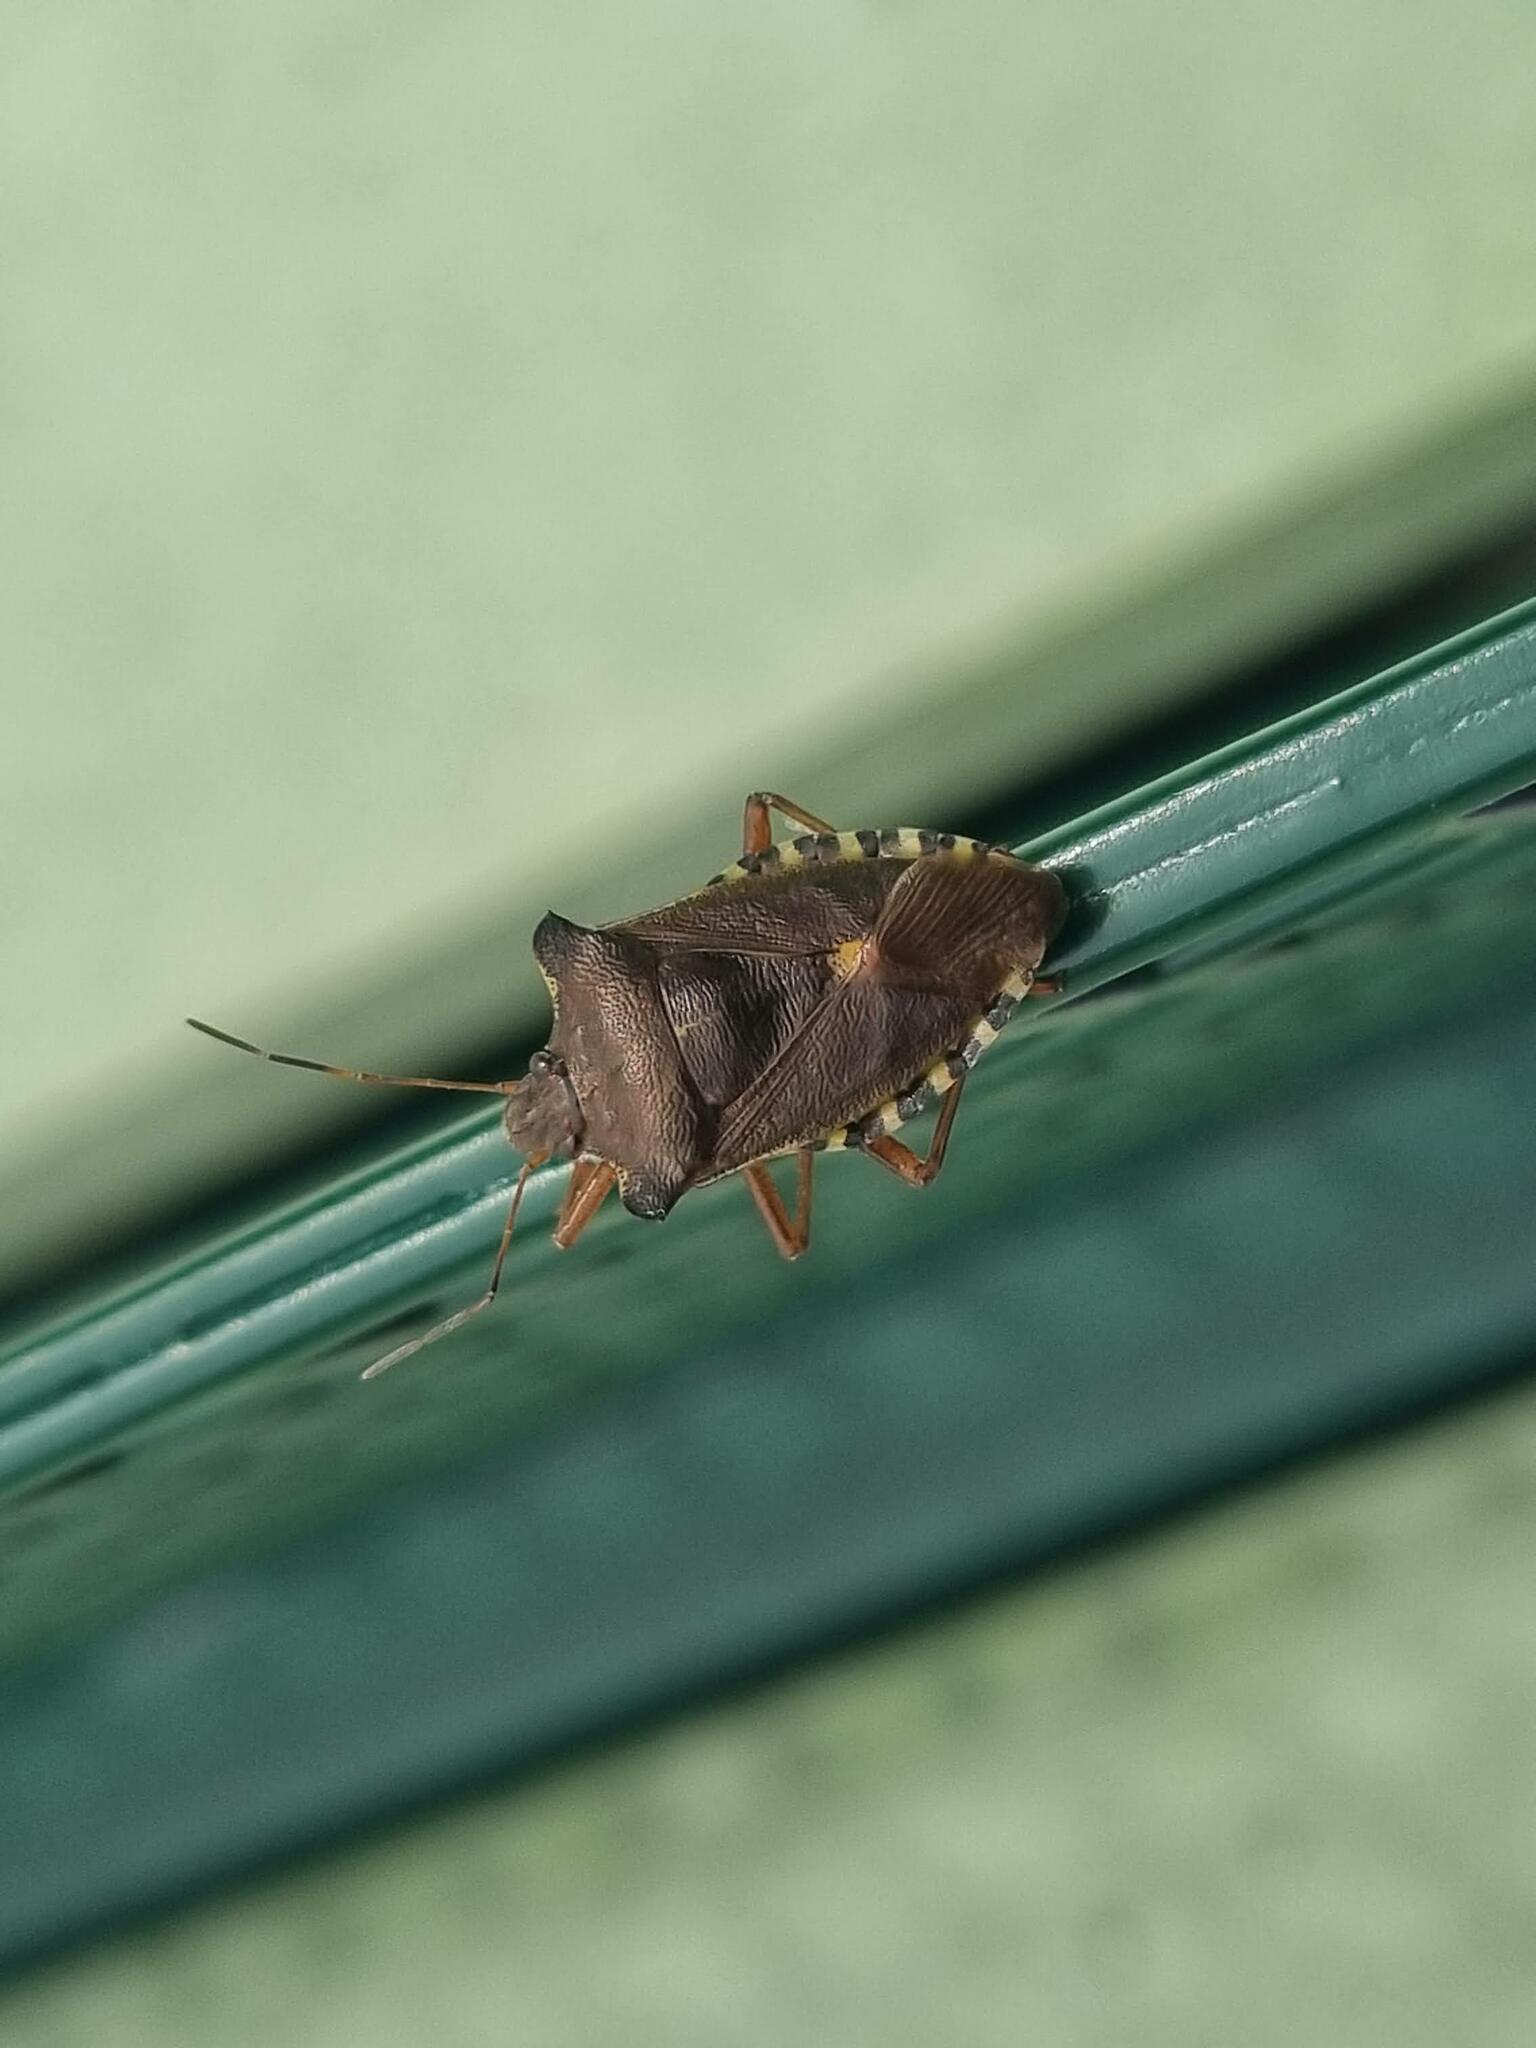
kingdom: Animalia
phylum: Arthropoda
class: Insecta
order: Hemiptera
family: Pentatomidae
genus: Pentatoma
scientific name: Pentatoma rufipes
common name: Forest bug
